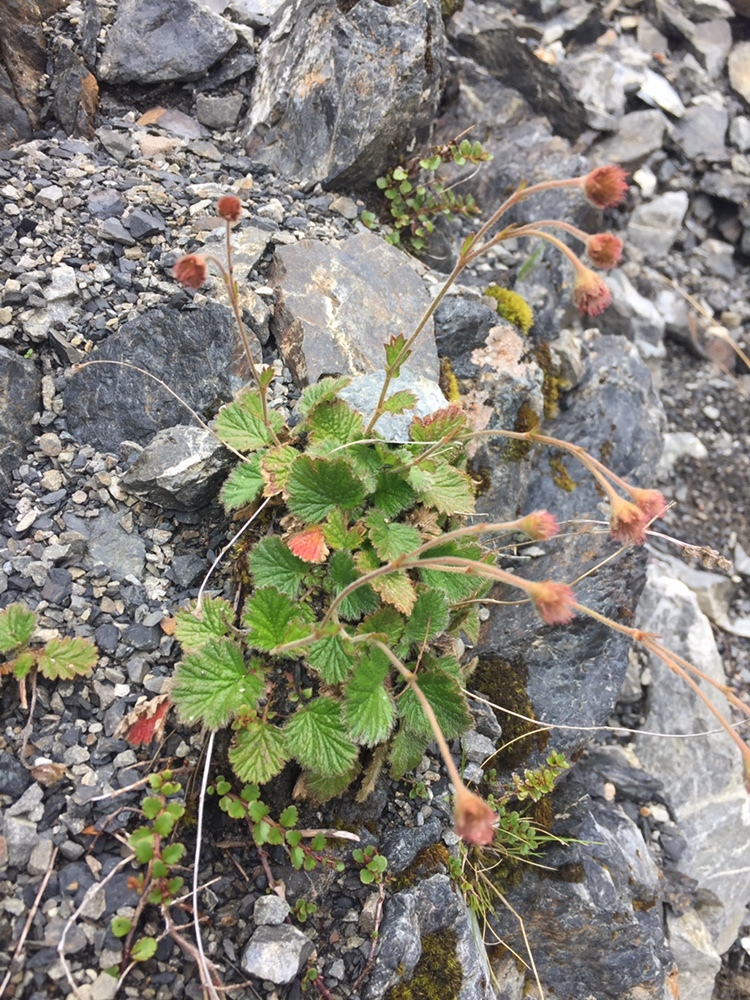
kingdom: Plantae
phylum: Tracheophyta
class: Magnoliopsida
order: Rosales
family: Rosaceae
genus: Geum
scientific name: Geum cockaynei
